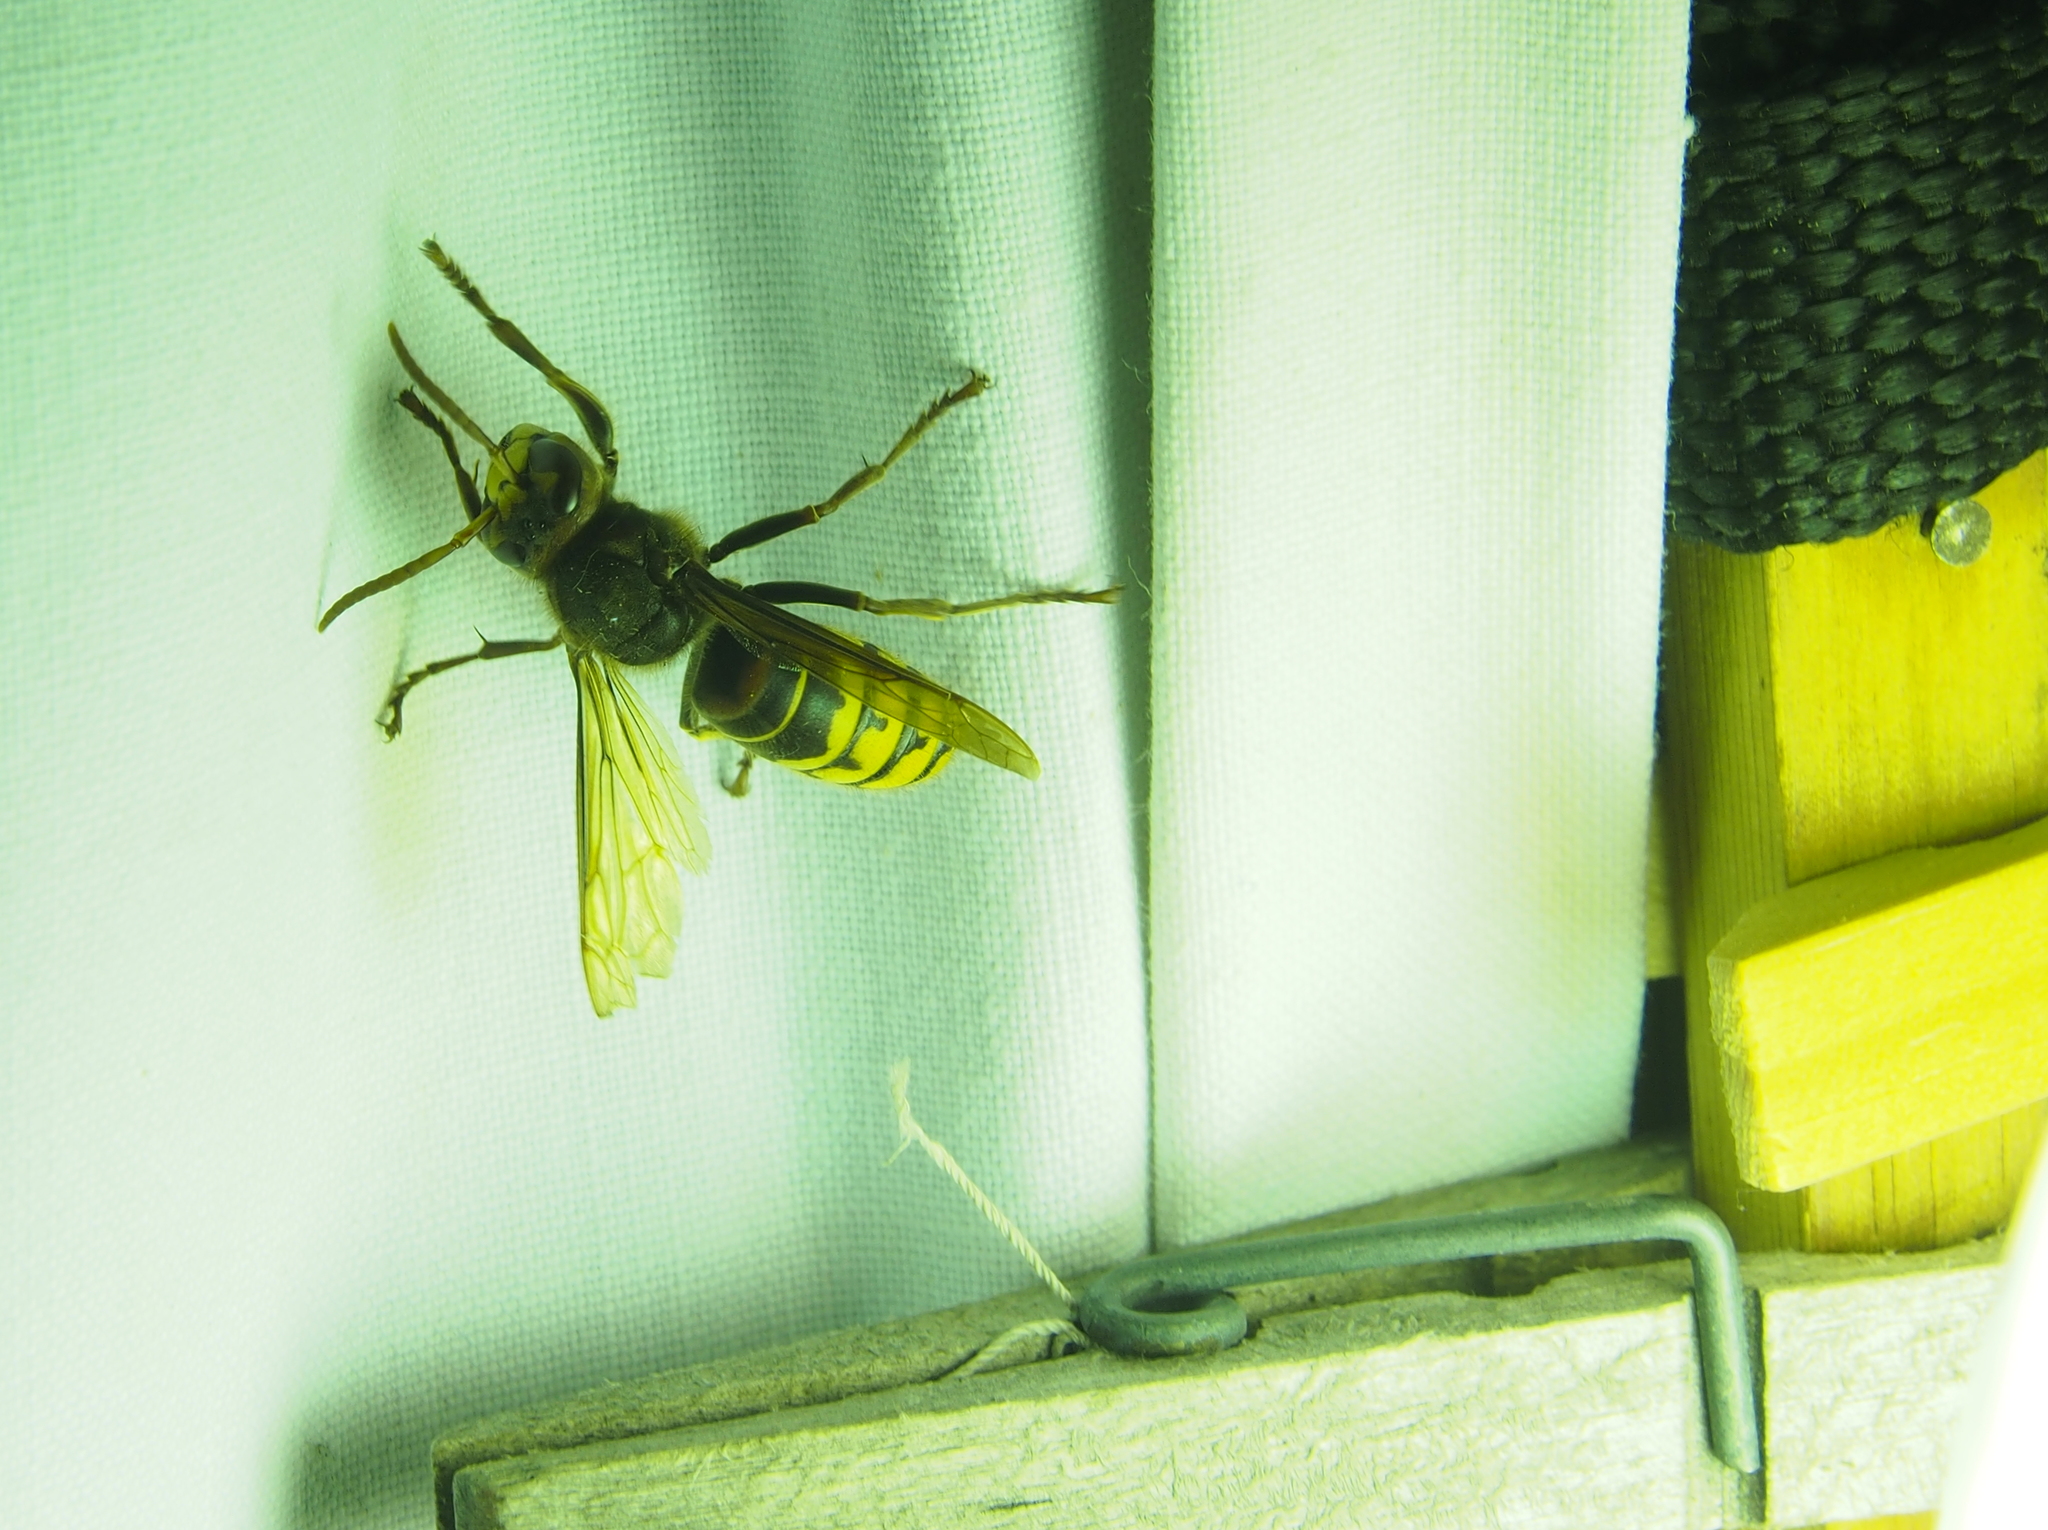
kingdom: Animalia
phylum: Arthropoda
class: Insecta
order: Hymenoptera
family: Vespidae
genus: Vespa
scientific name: Vespa crabro
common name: Hornet
